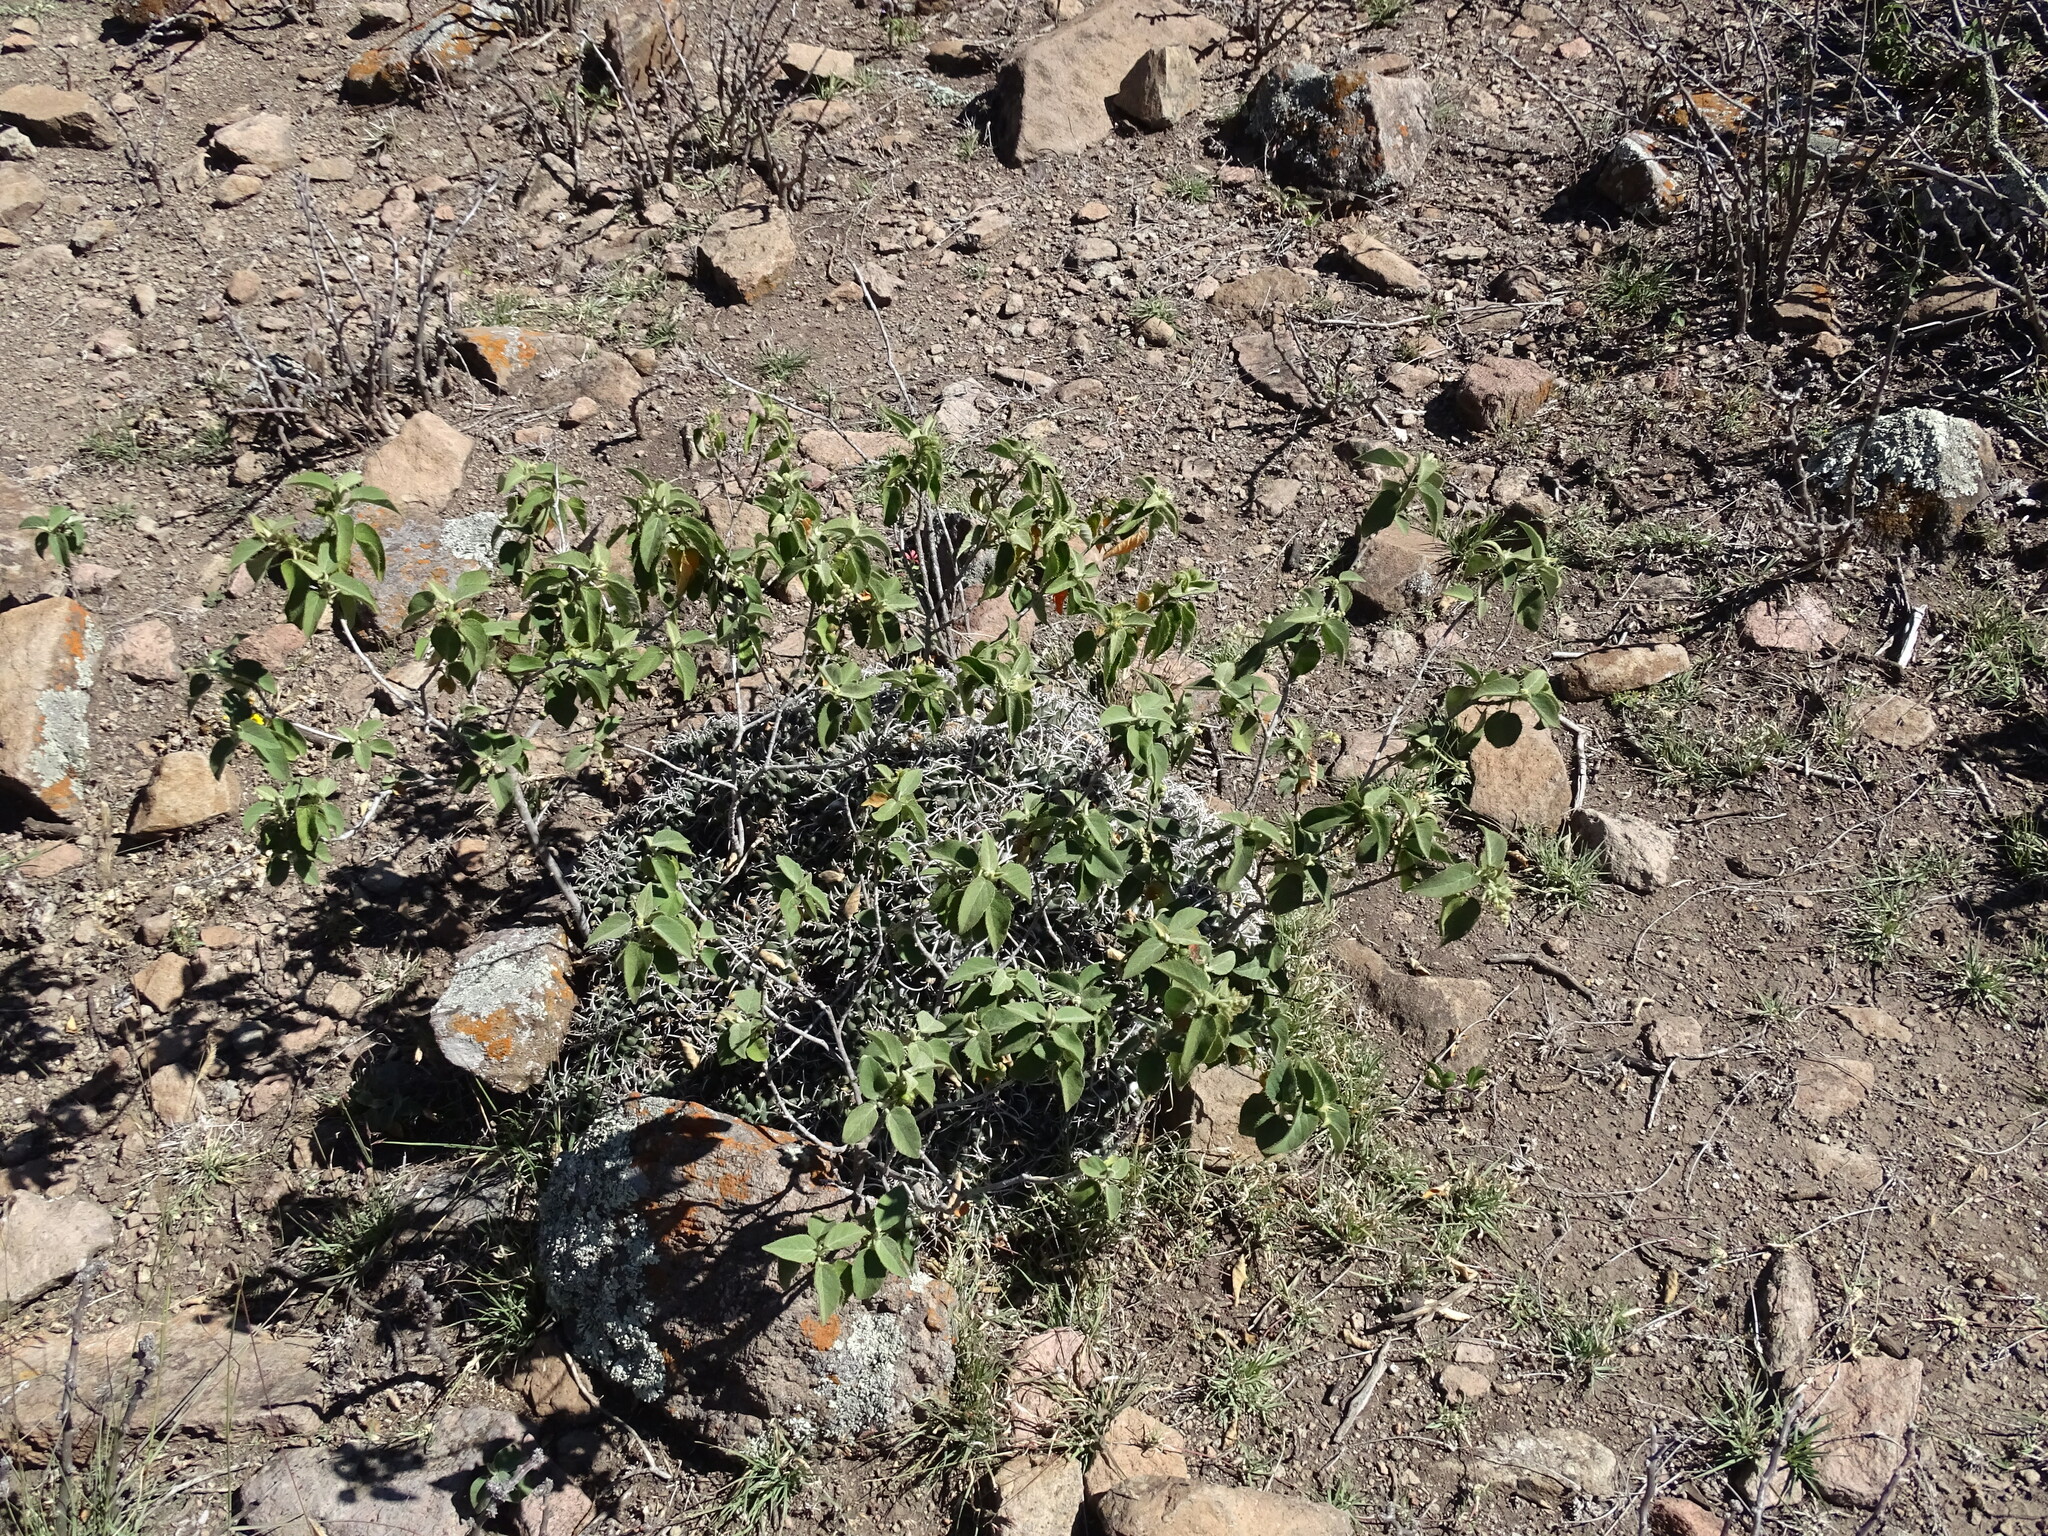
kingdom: Plantae
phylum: Tracheophyta
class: Magnoliopsida
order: Caryophyllales
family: Cactaceae
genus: Mammillaria
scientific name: Mammillaria magnimamma
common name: Mexican pincushion
